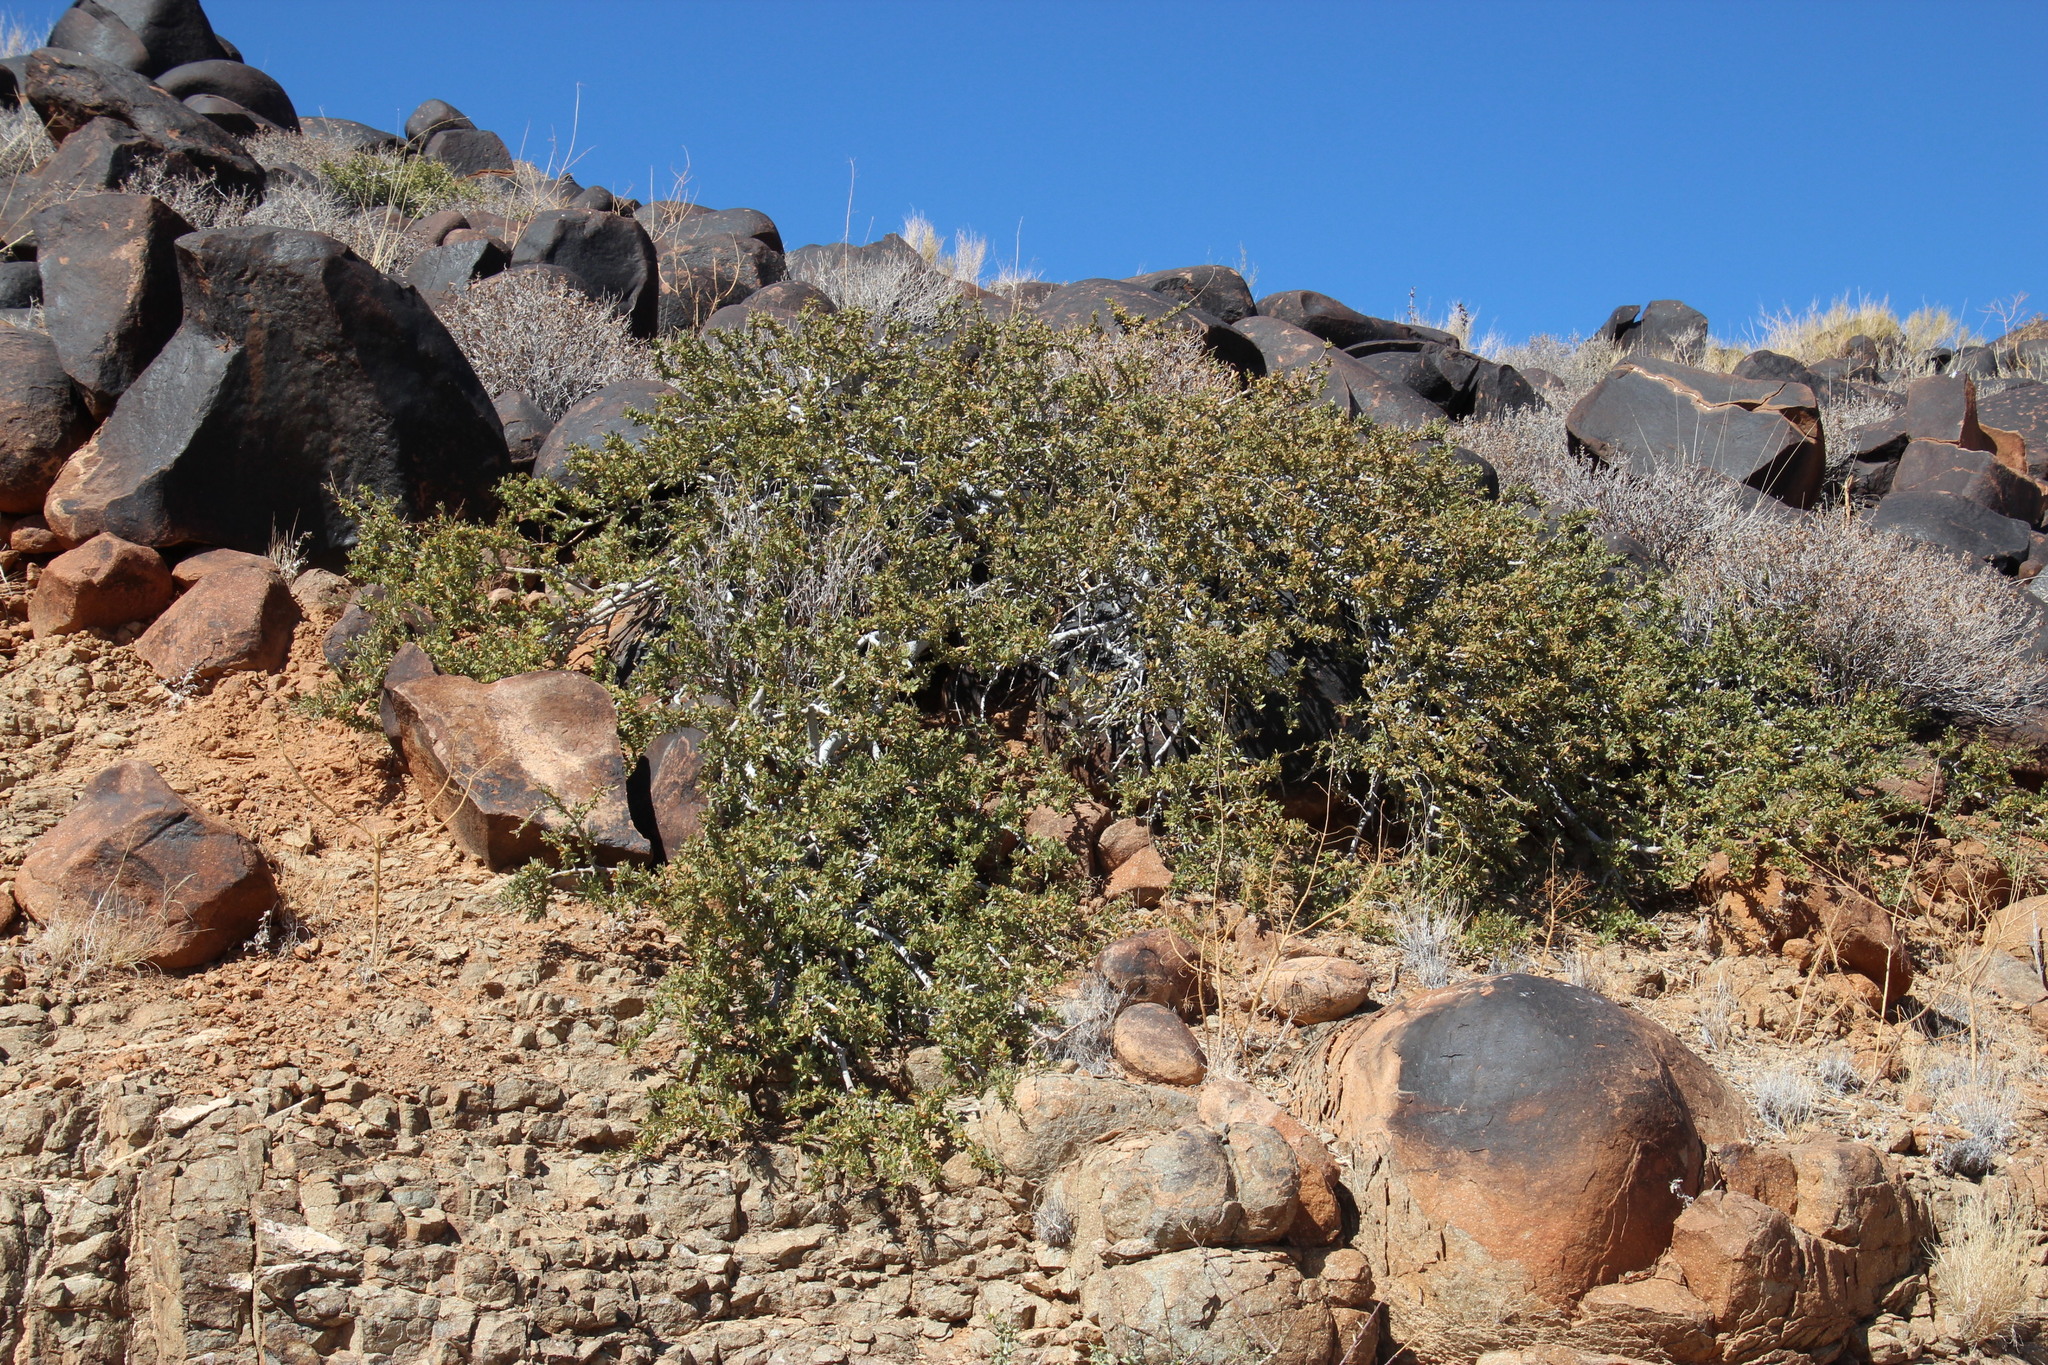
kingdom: Plantae
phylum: Tracheophyta
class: Magnoliopsida
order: Brassicales
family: Capparaceae
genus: Boscia
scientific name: Boscia albitrunca
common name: Caper bush
